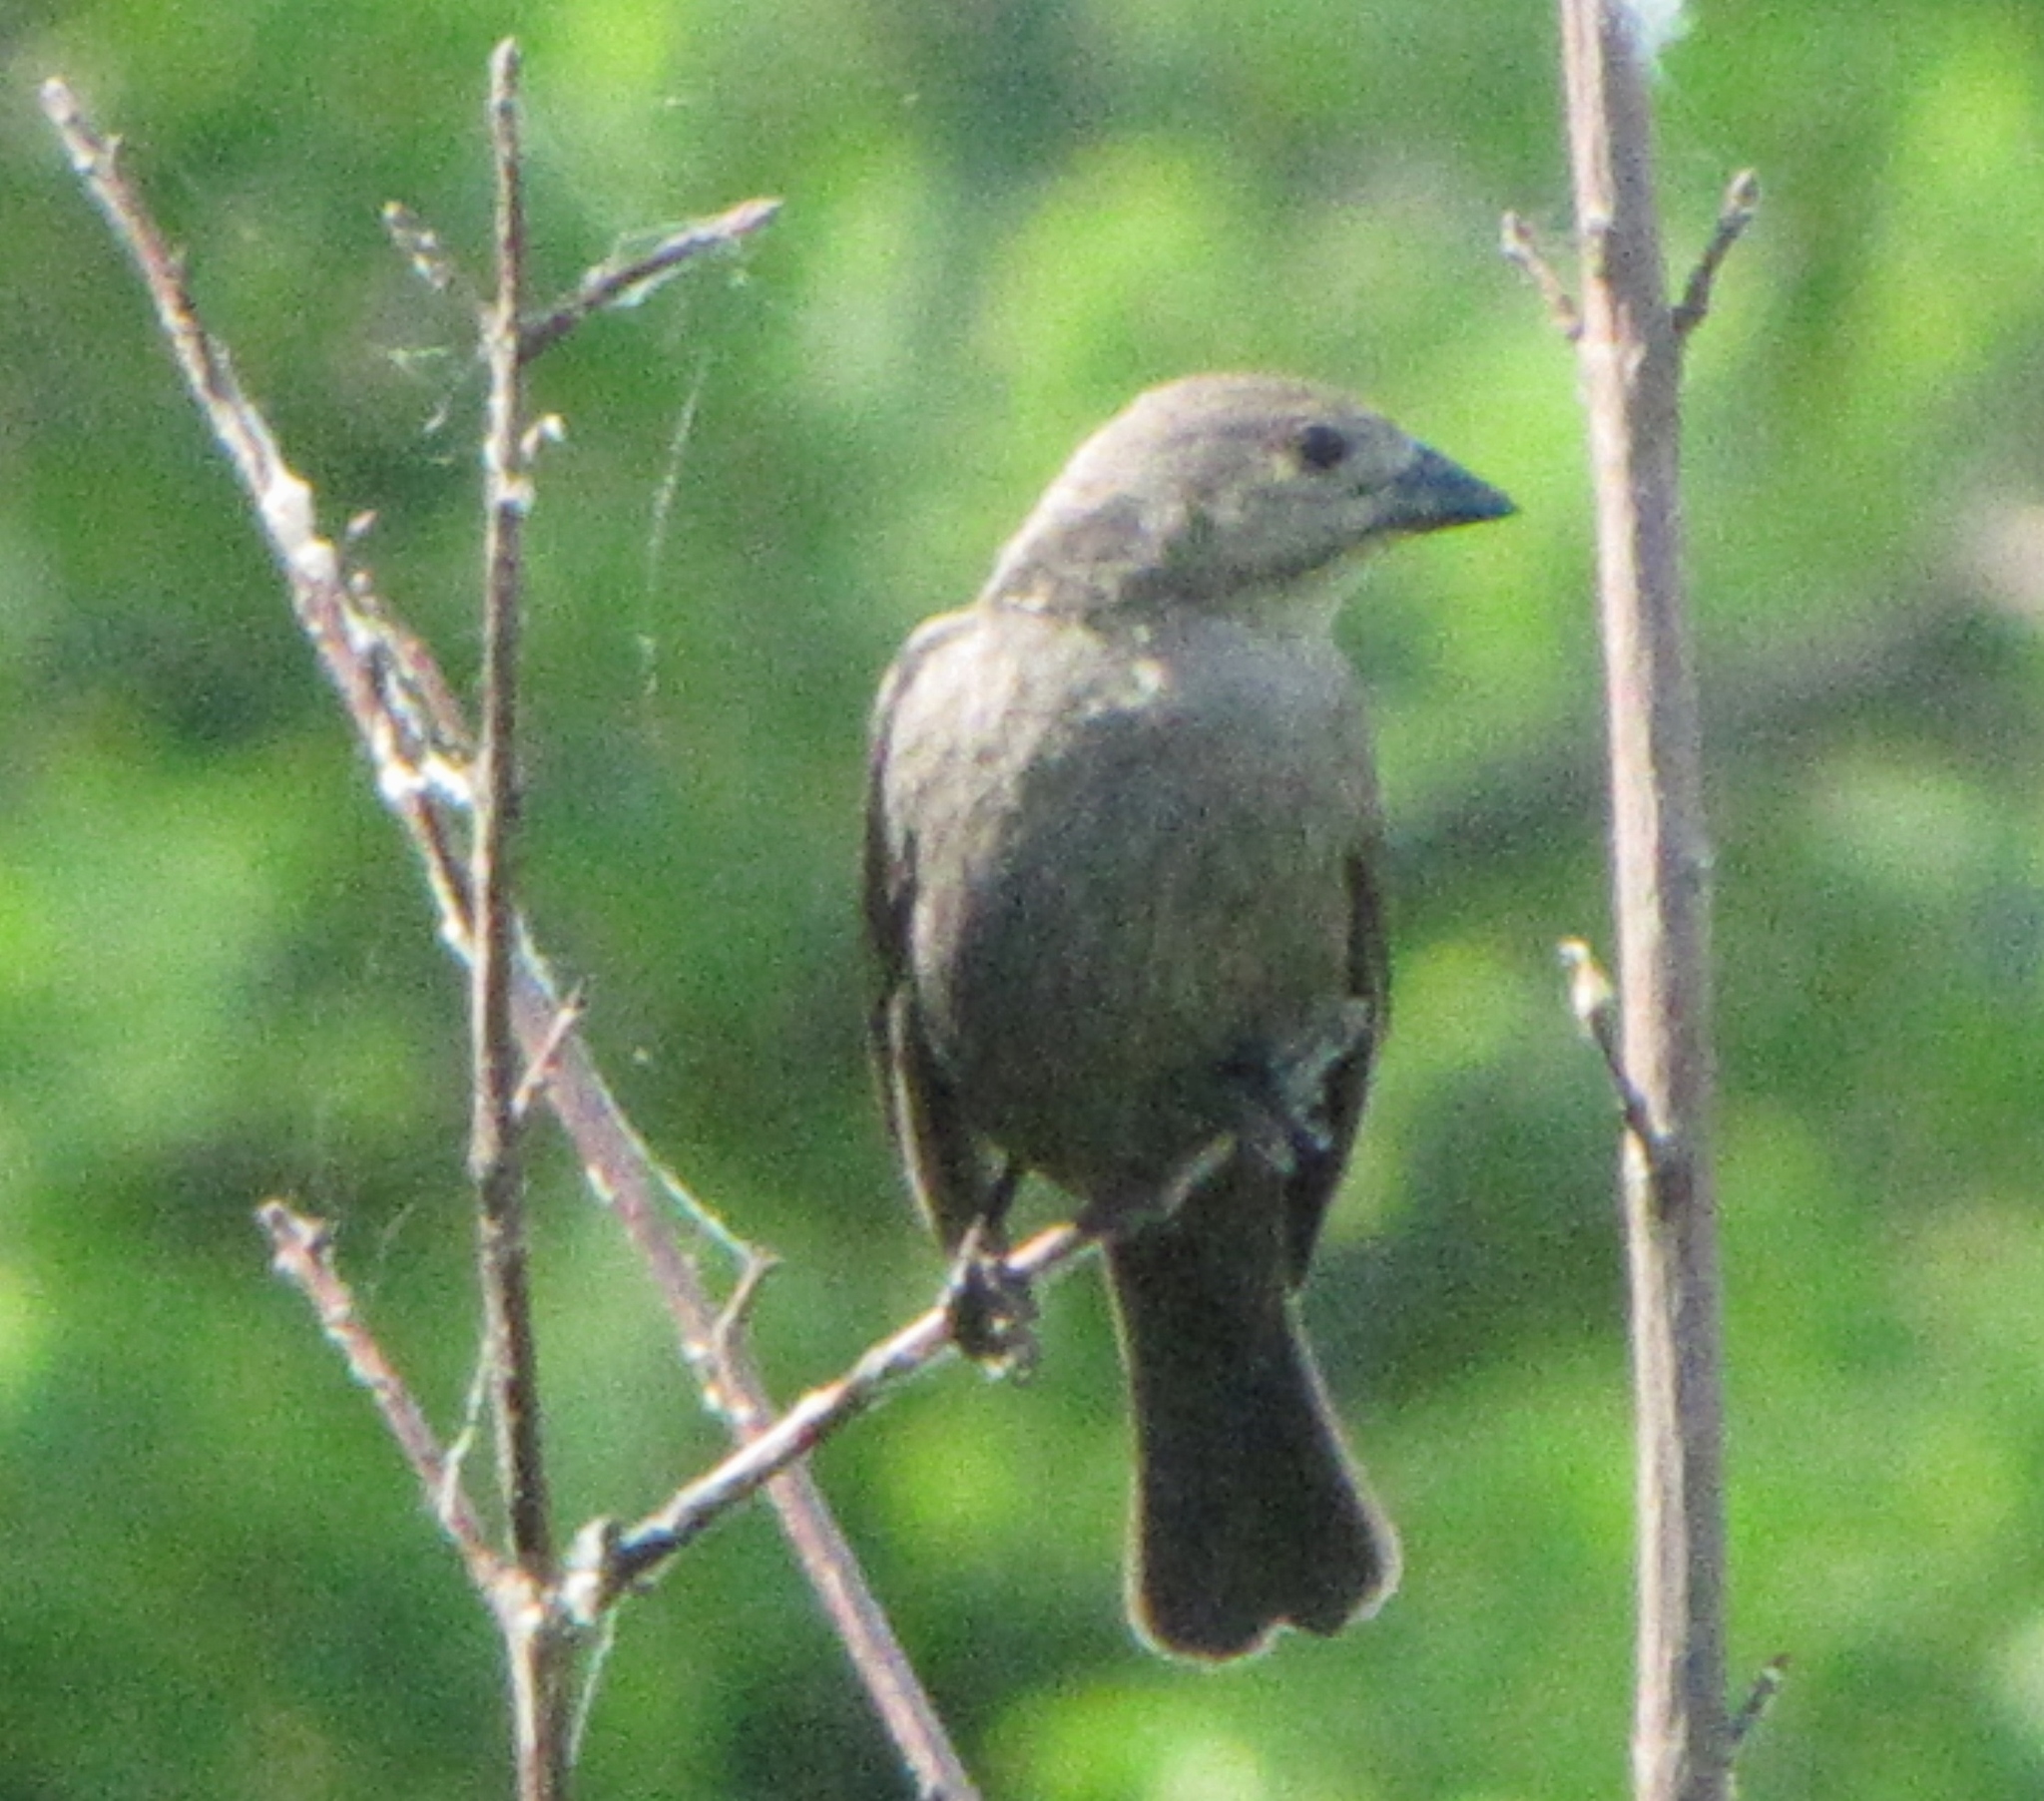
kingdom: Animalia
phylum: Chordata
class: Aves
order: Passeriformes
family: Icteridae
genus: Molothrus
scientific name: Molothrus ater
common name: Brown-headed cowbird
